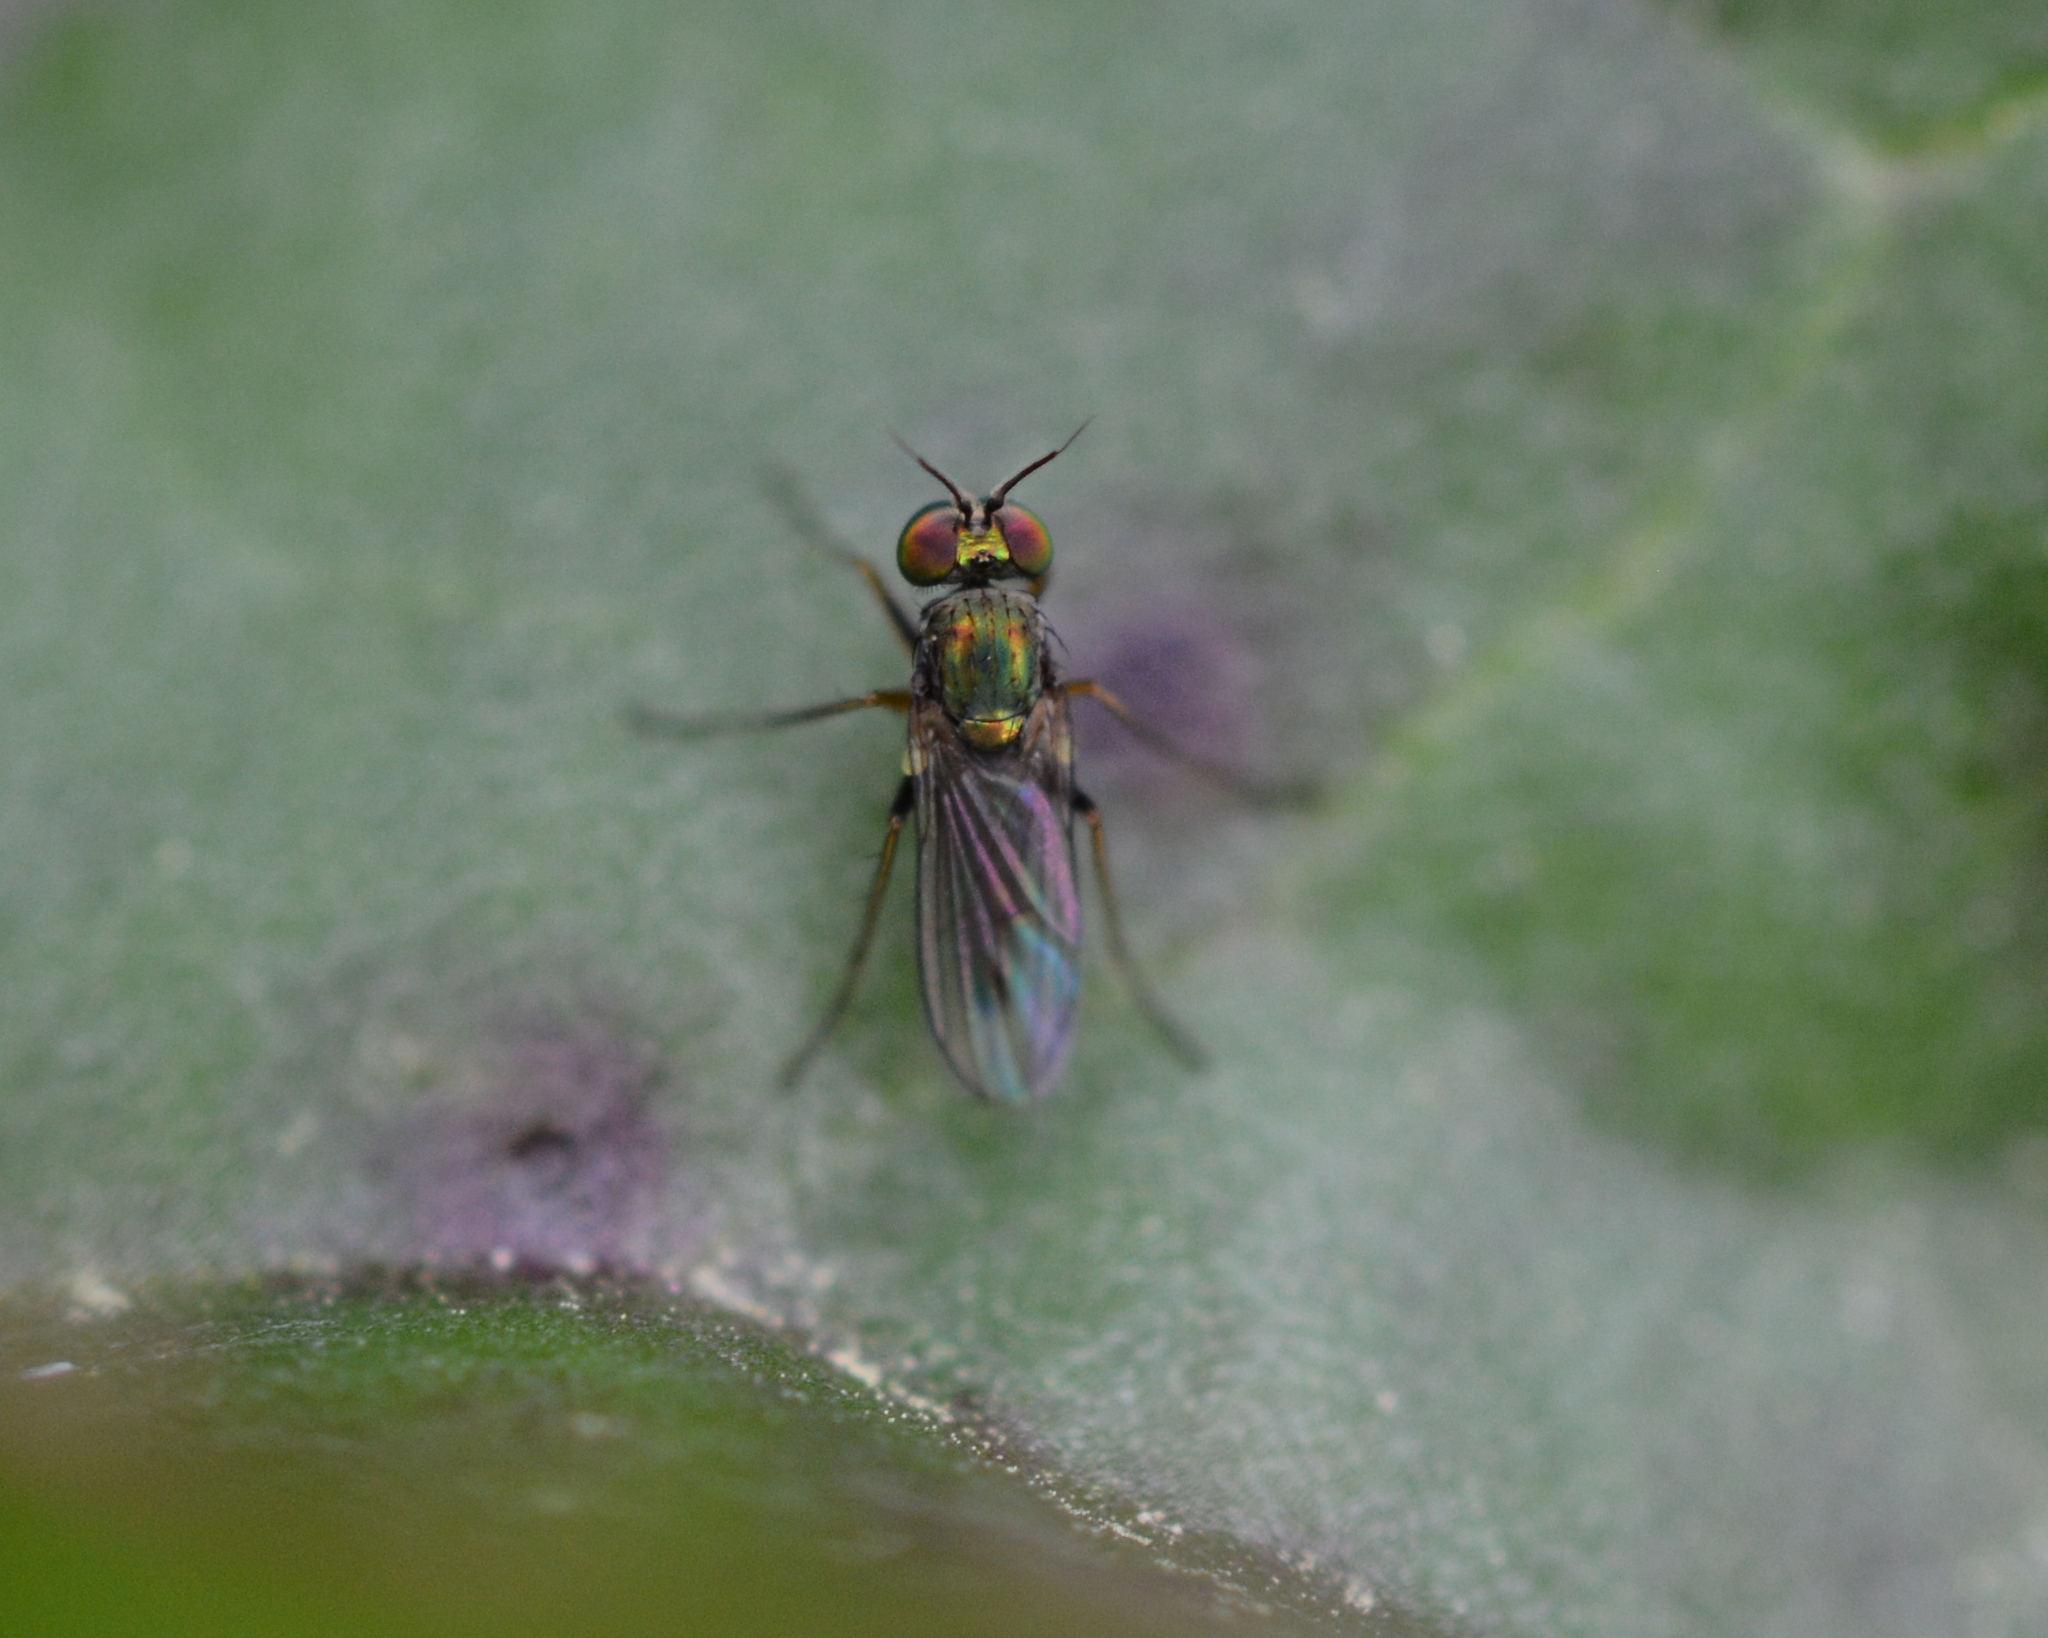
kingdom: Animalia
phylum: Arthropoda
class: Insecta
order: Diptera
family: Dolichopodidae
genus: Achradocera
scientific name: Achradocera barbata
